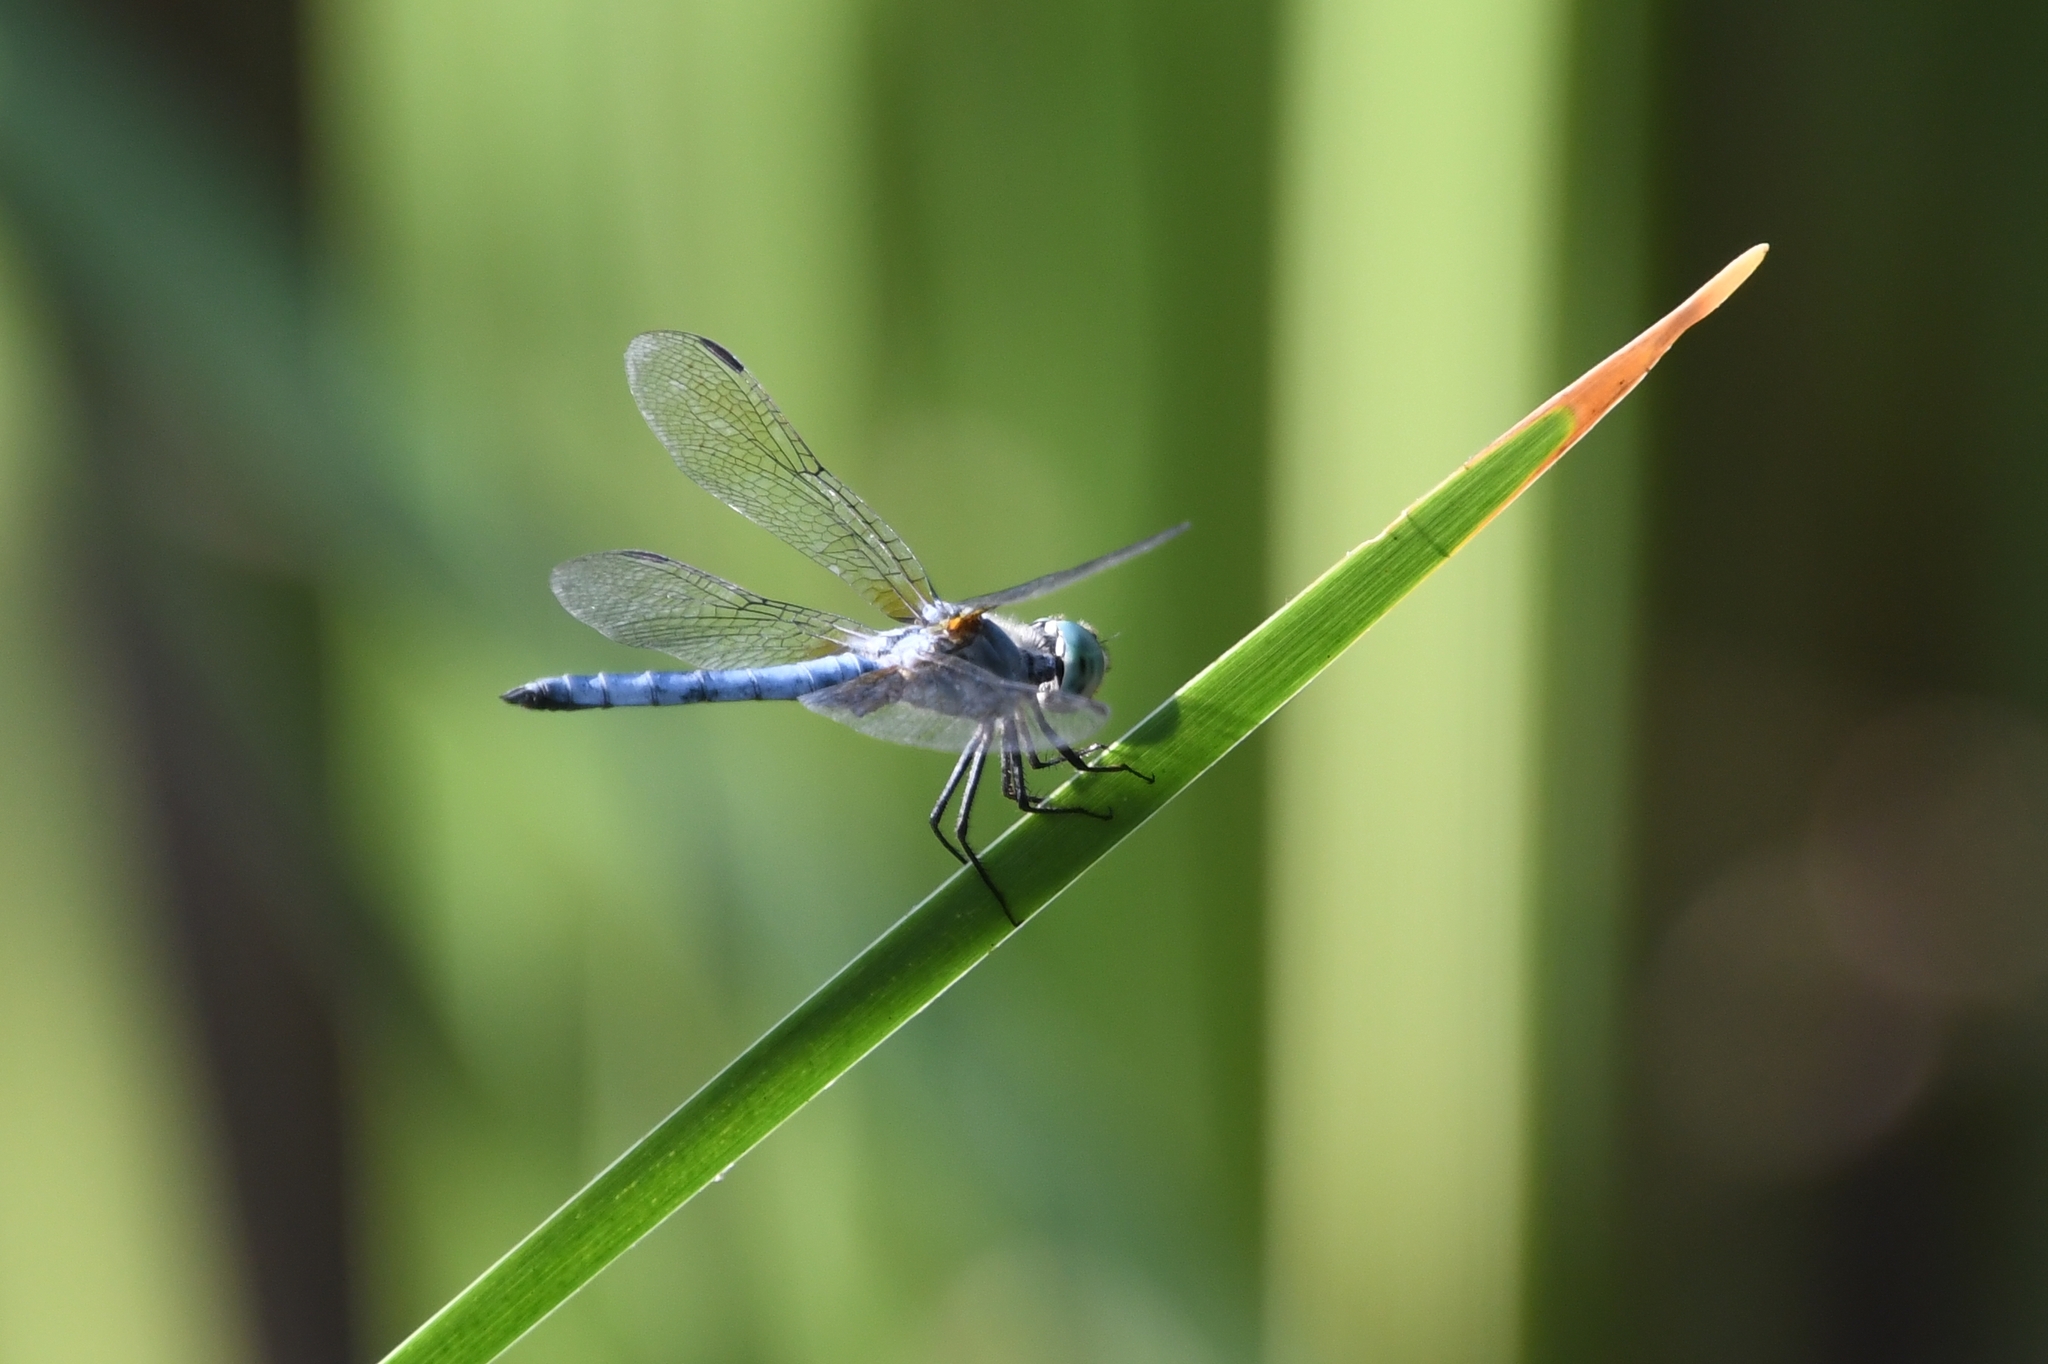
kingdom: Animalia
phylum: Arthropoda
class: Insecta
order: Odonata
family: Libellulidae
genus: Pachydiplax
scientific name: Pachydiplax longipennis
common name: Blue dasher
